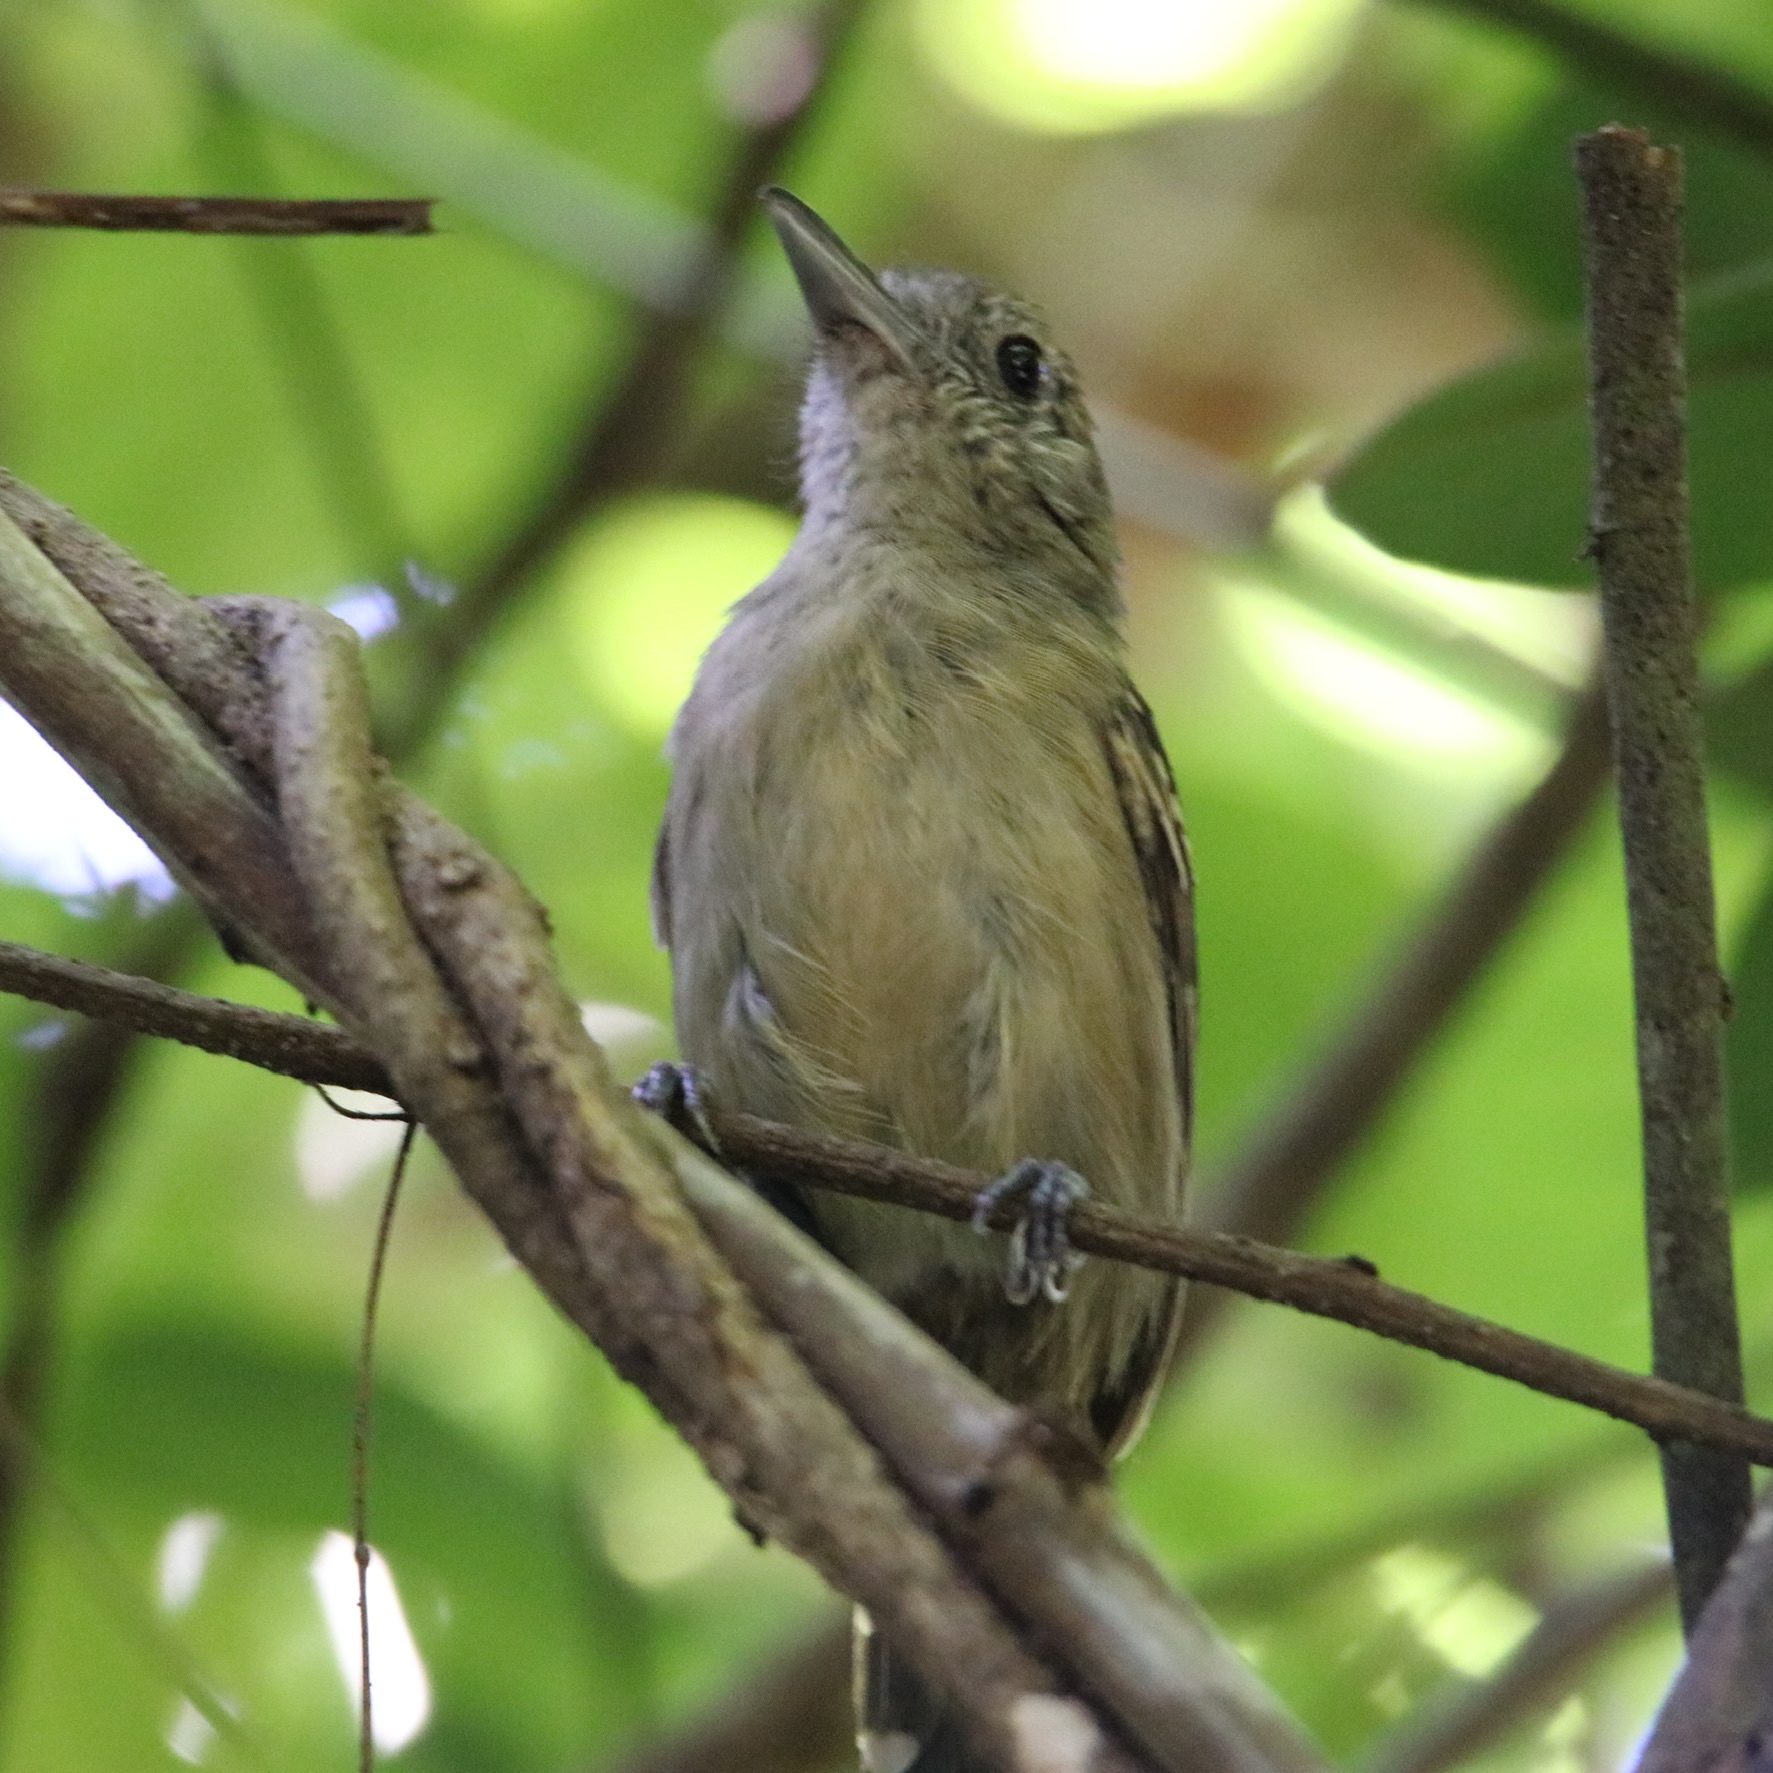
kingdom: Animalia
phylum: Chordata
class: Aves
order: Passeriformes
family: Thamnophilidae
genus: Thamnophilus
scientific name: Thamnophilus atrinucha
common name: Black-crowned antshrike
